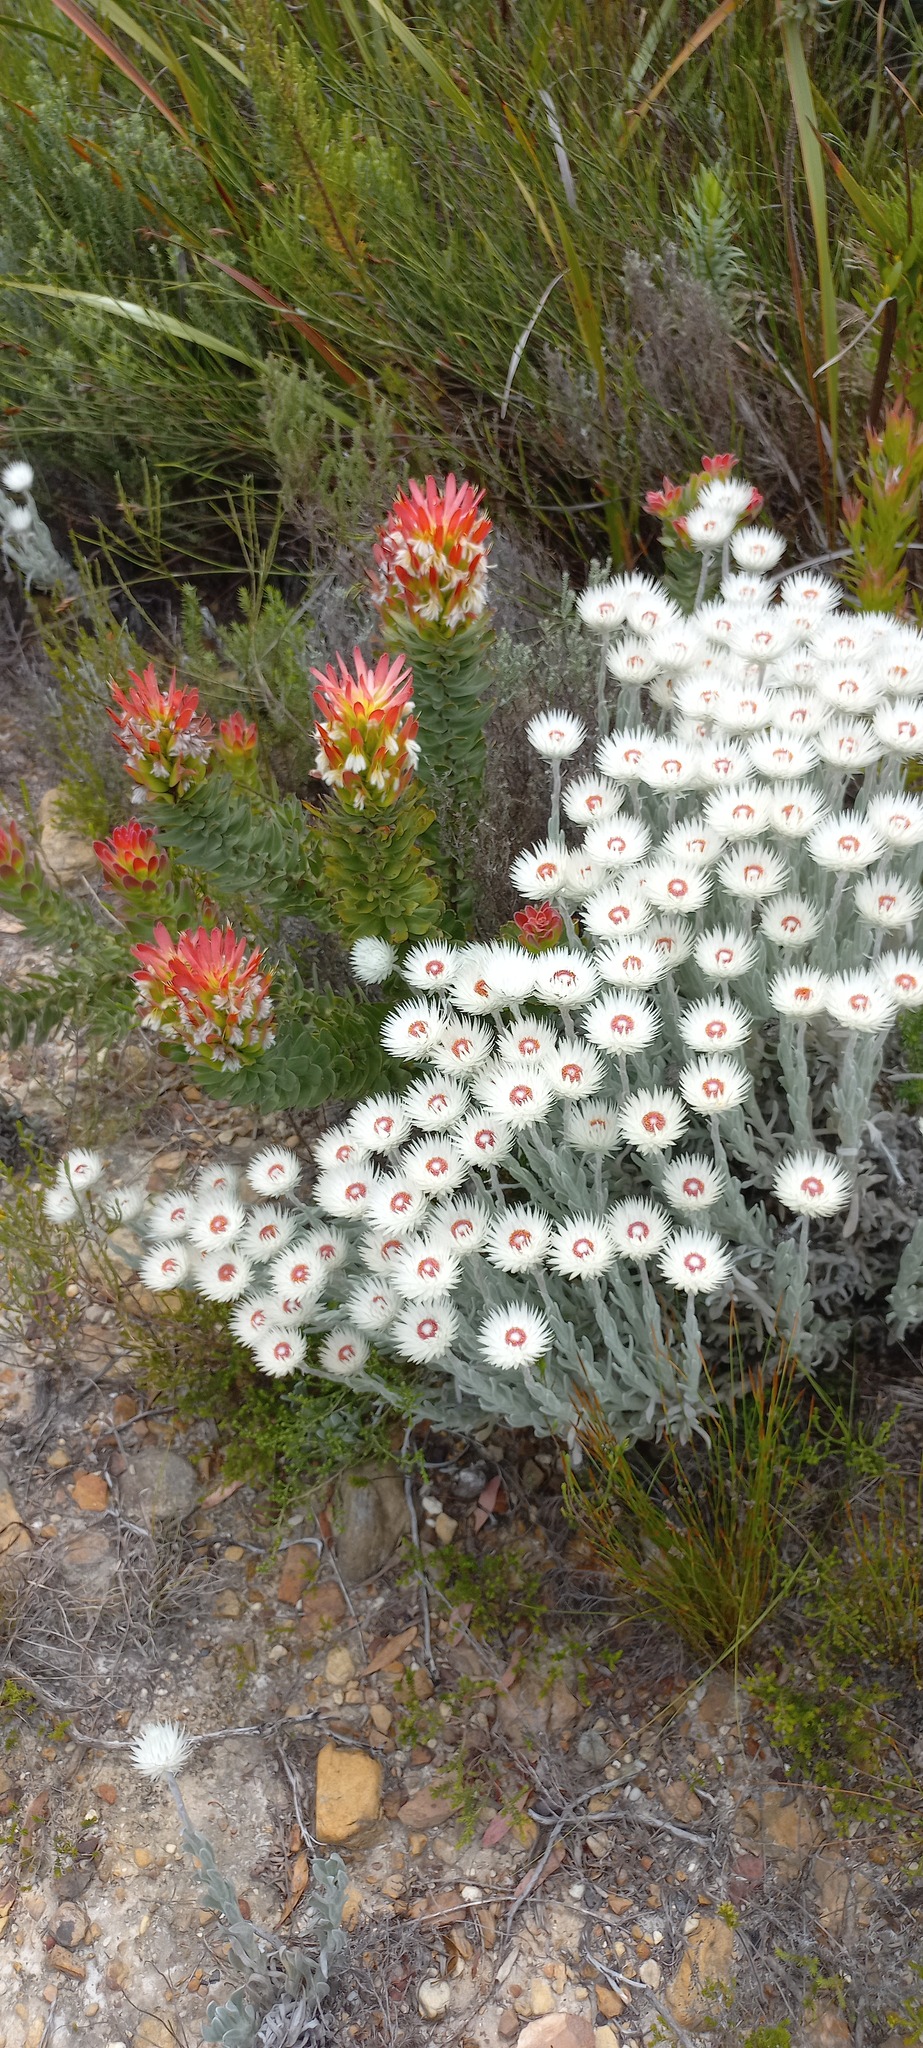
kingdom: Plantae
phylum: Tracheophyta
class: Magnoliopsida
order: Asterales
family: Asteraceae
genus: Syncarpha
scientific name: Syncarpha vestita
